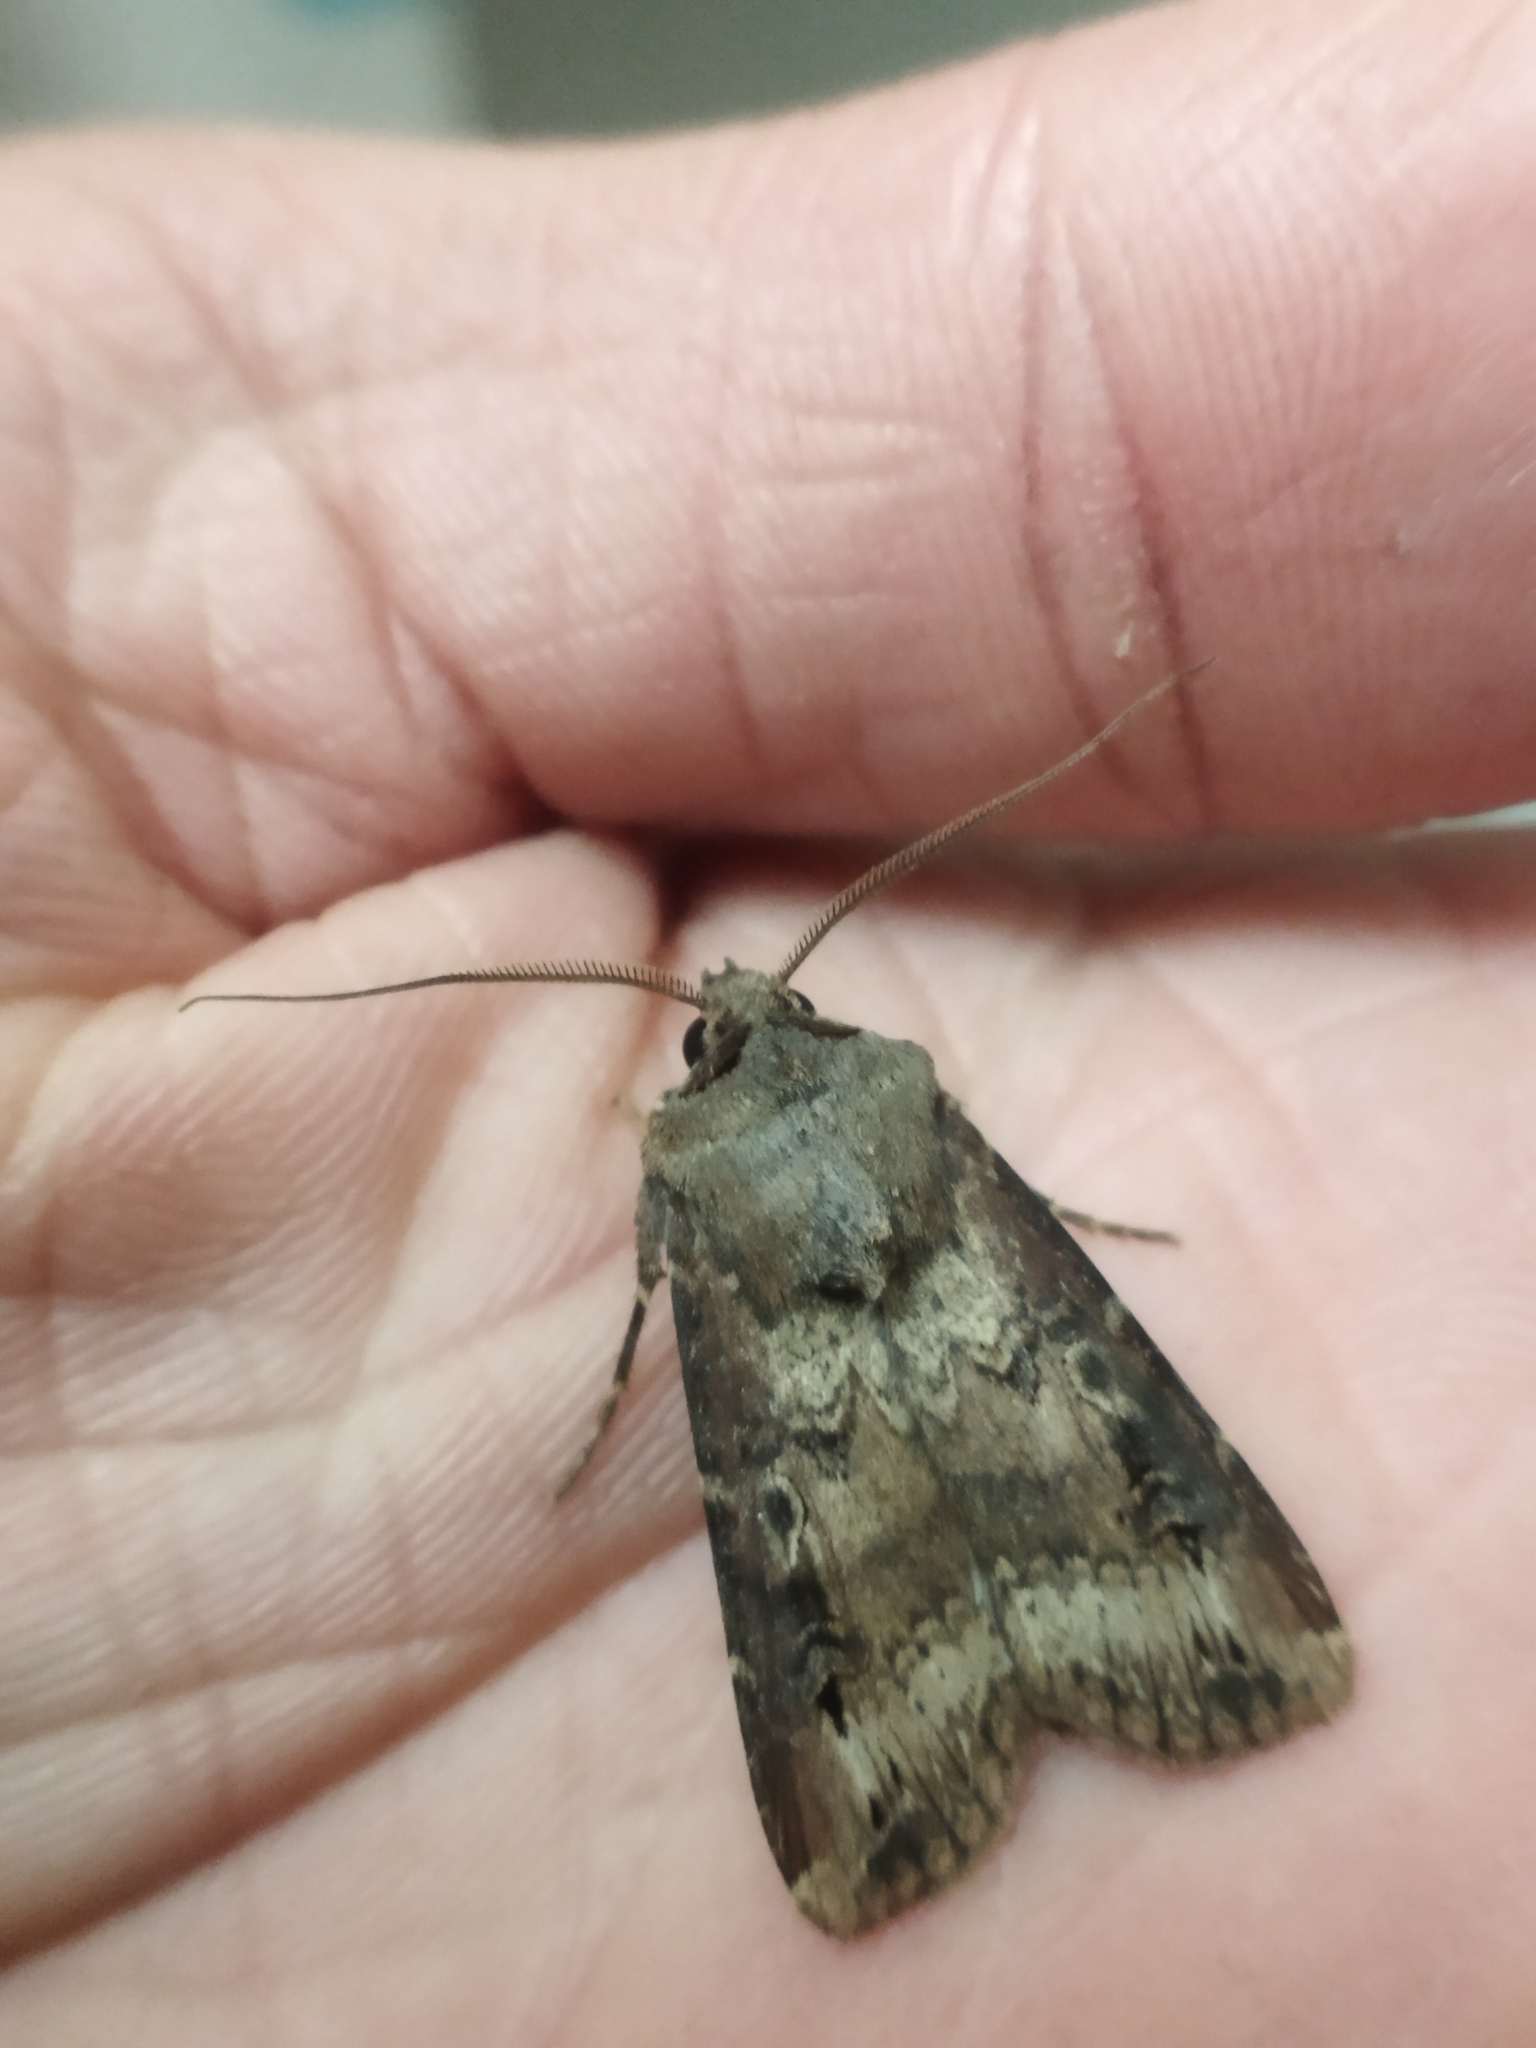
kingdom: Animalia
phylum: Arthropoda
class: Insecta
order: Lepidoptera
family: Noctuidae
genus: Agrotis
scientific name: Agrotis ipsilon
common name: Dark sword-grass
